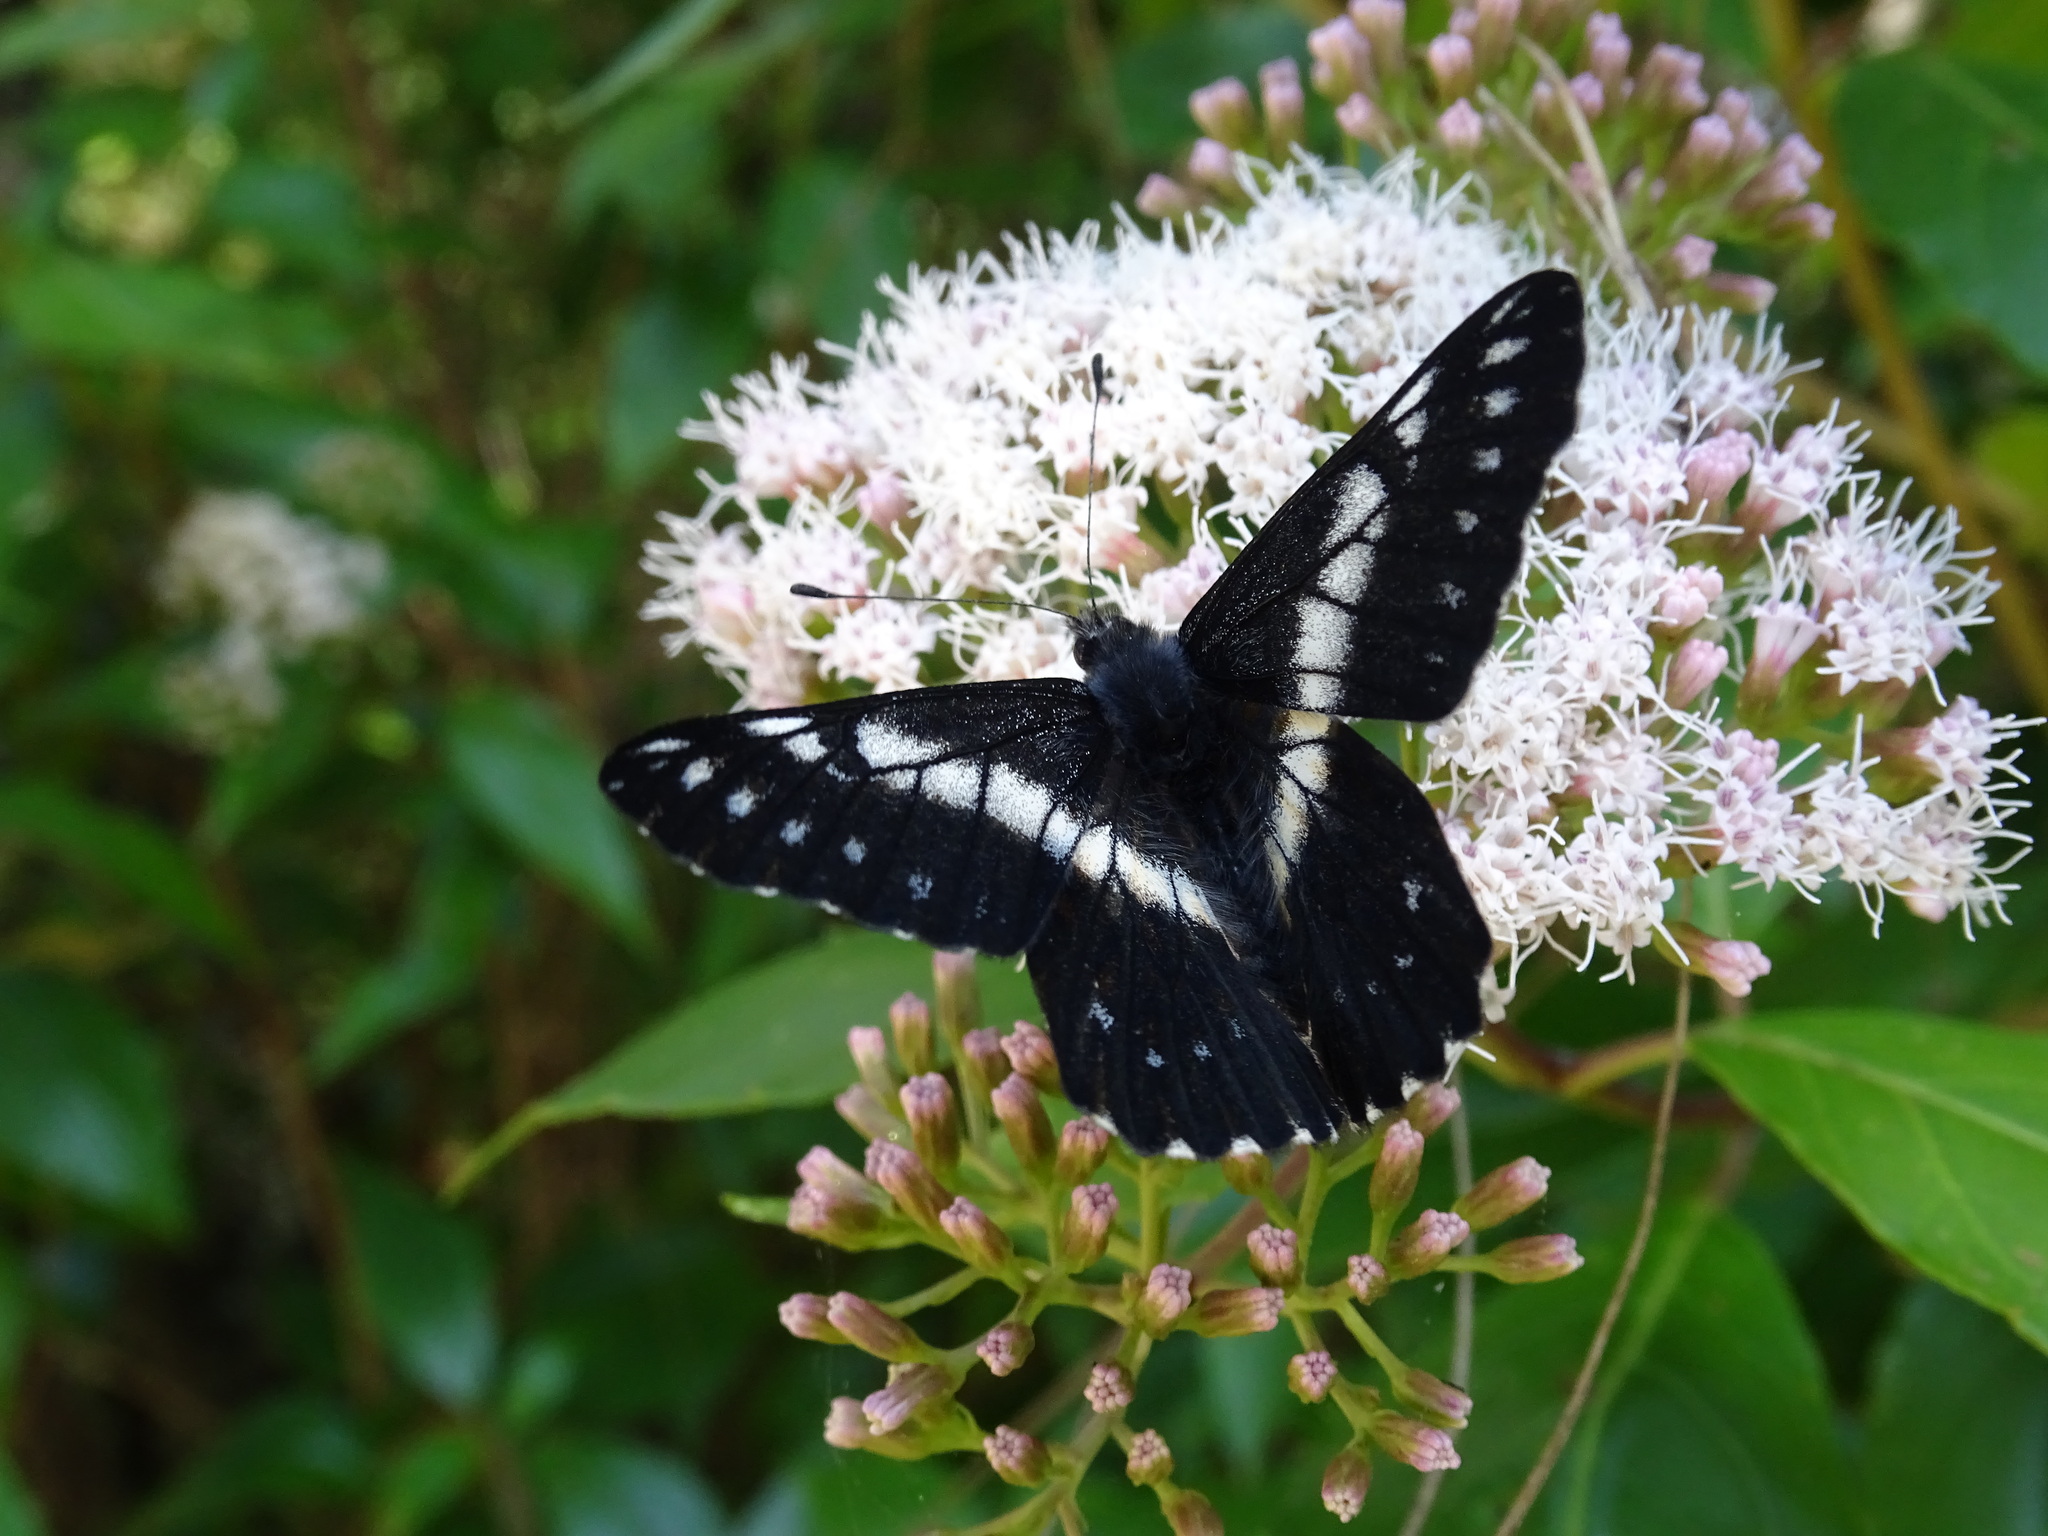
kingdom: Animalia
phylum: Arthropoda
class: Insecta
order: Lepidoptera
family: Pieridae
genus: Archonias
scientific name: Archonias teutila
